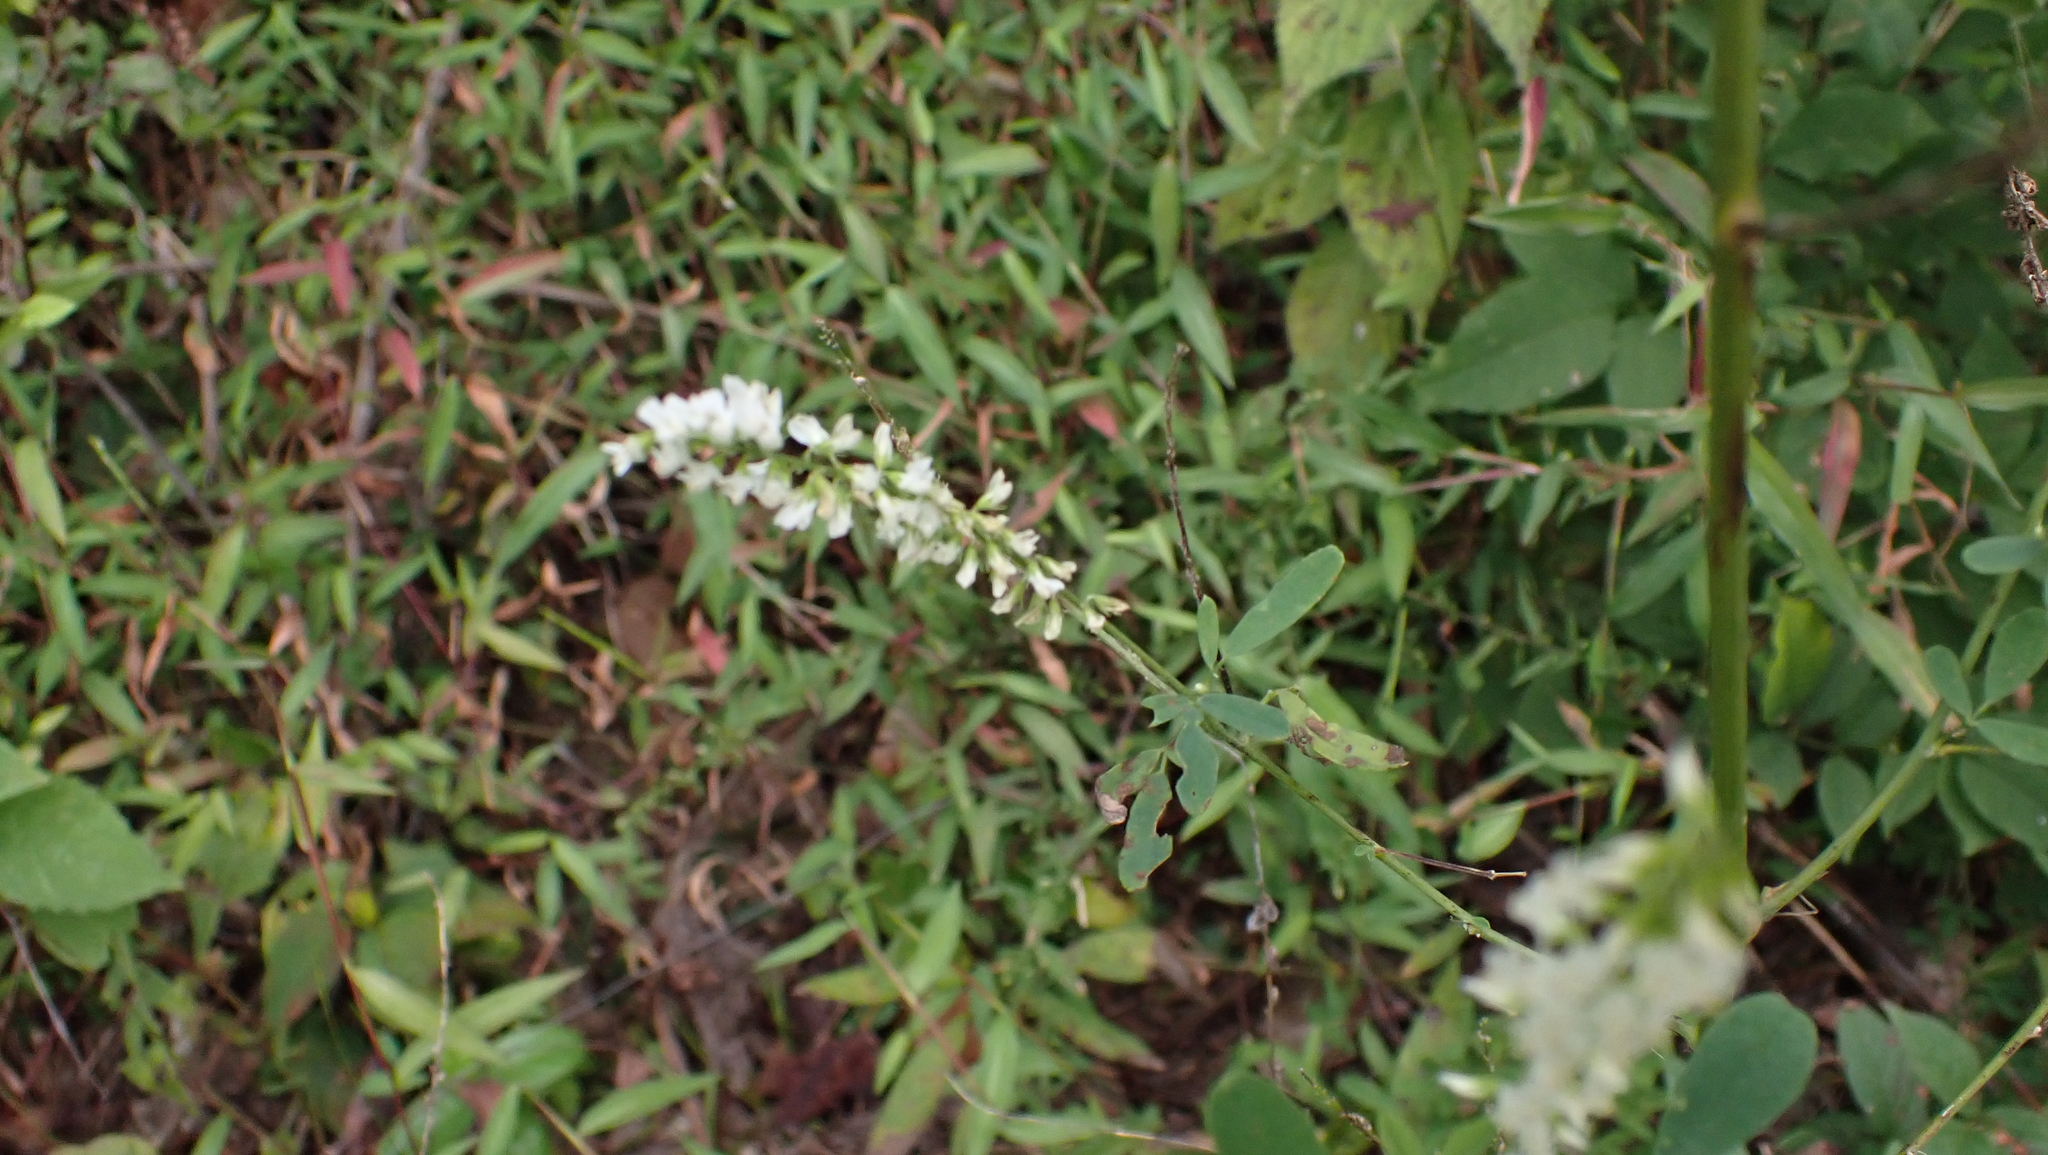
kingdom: Plantae
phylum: Tracheophyta
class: Magnoliopsida
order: Fabales
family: Fabaceae
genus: Melilotus
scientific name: Melilotus albus
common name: White melilot
